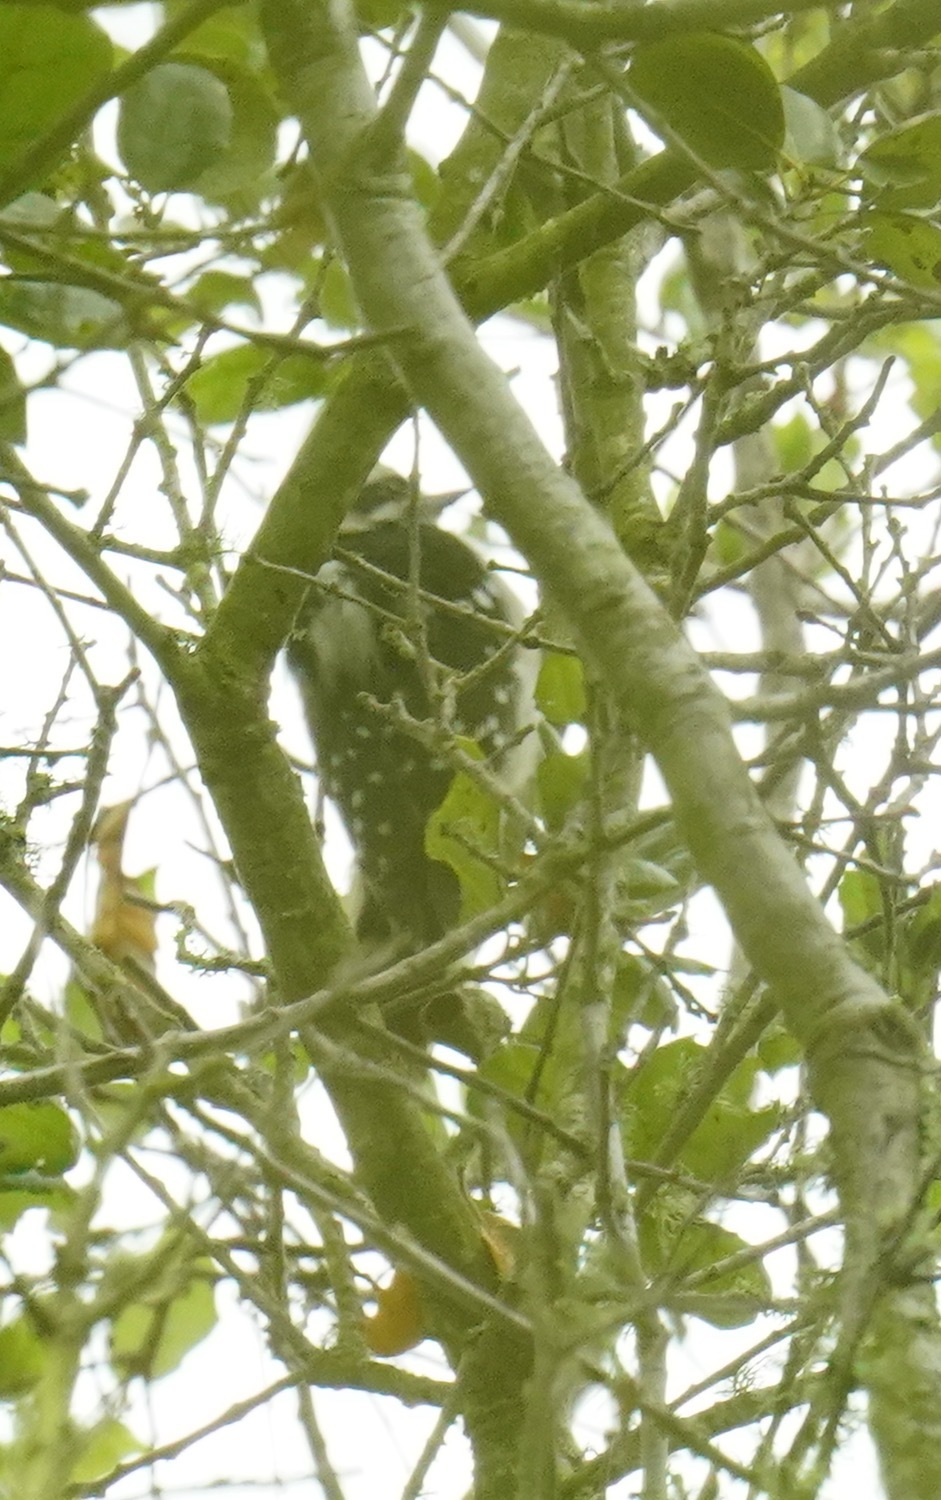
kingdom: Animalia
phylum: Chordata
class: Aves
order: Piciformes
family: Picidae
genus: Dryobates
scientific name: Dryobates pubescens
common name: Downy woodpecker
